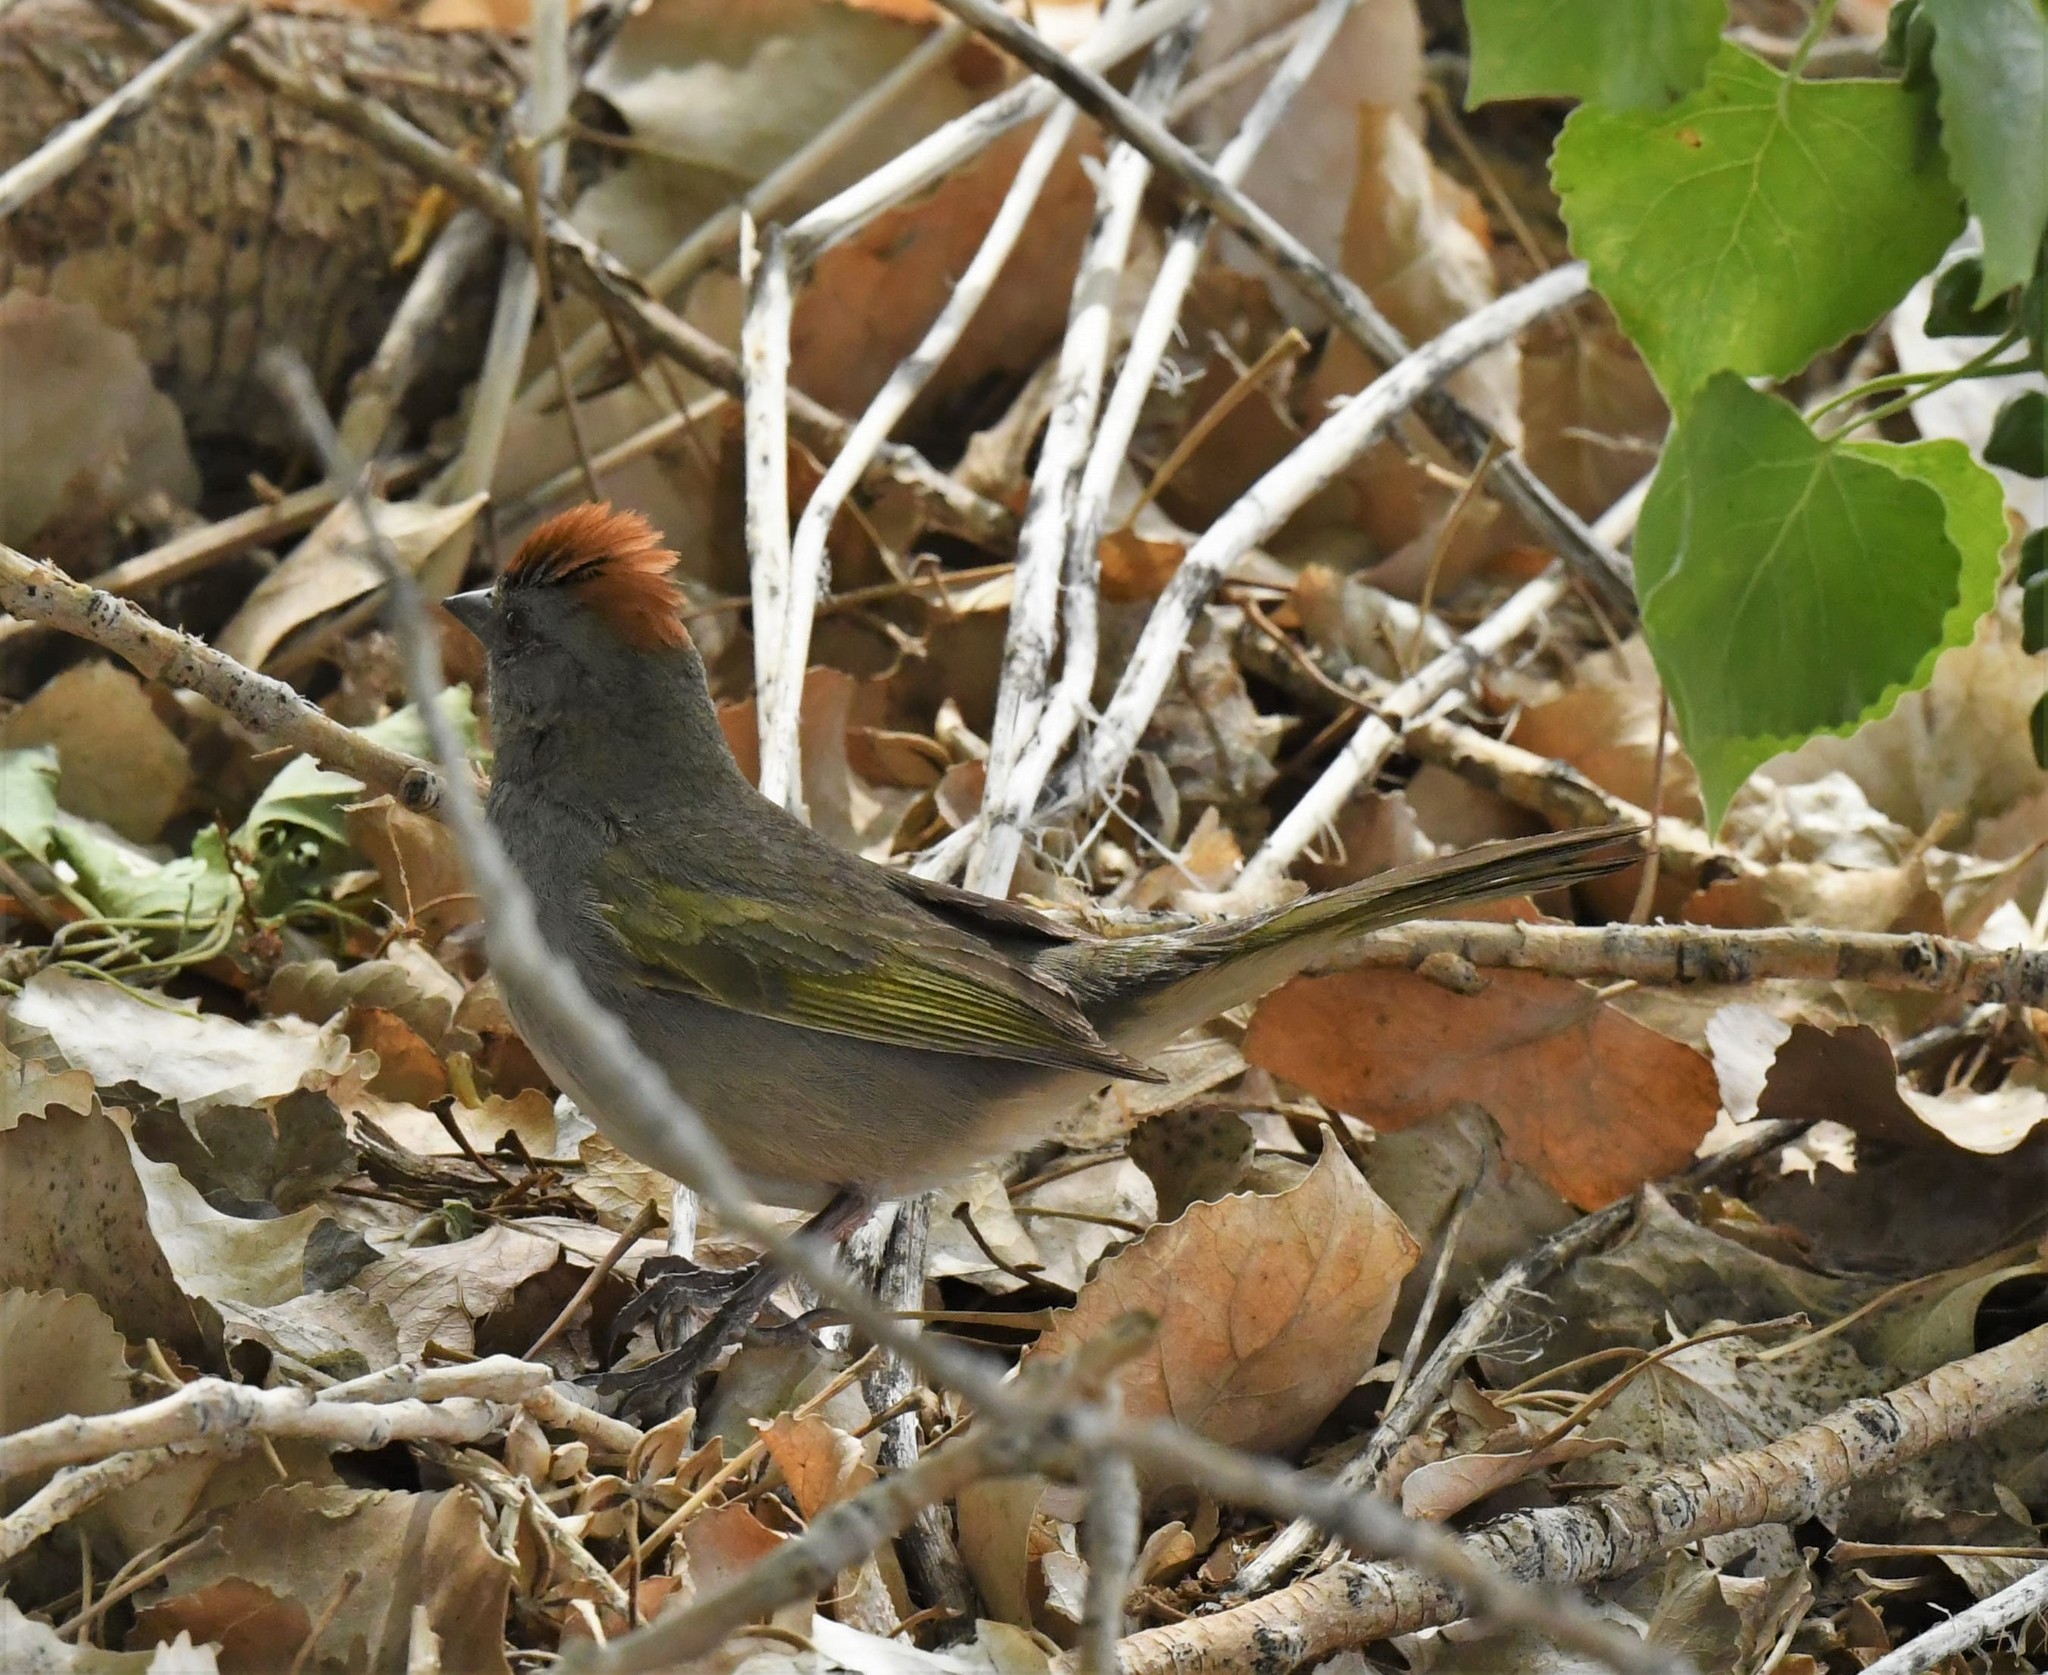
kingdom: Animalia
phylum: Chordata
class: Aves
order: Passeriformes
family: Passerellidae
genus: Pipilo
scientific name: Pipilo chlorurus
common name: Green-tailed towhee
